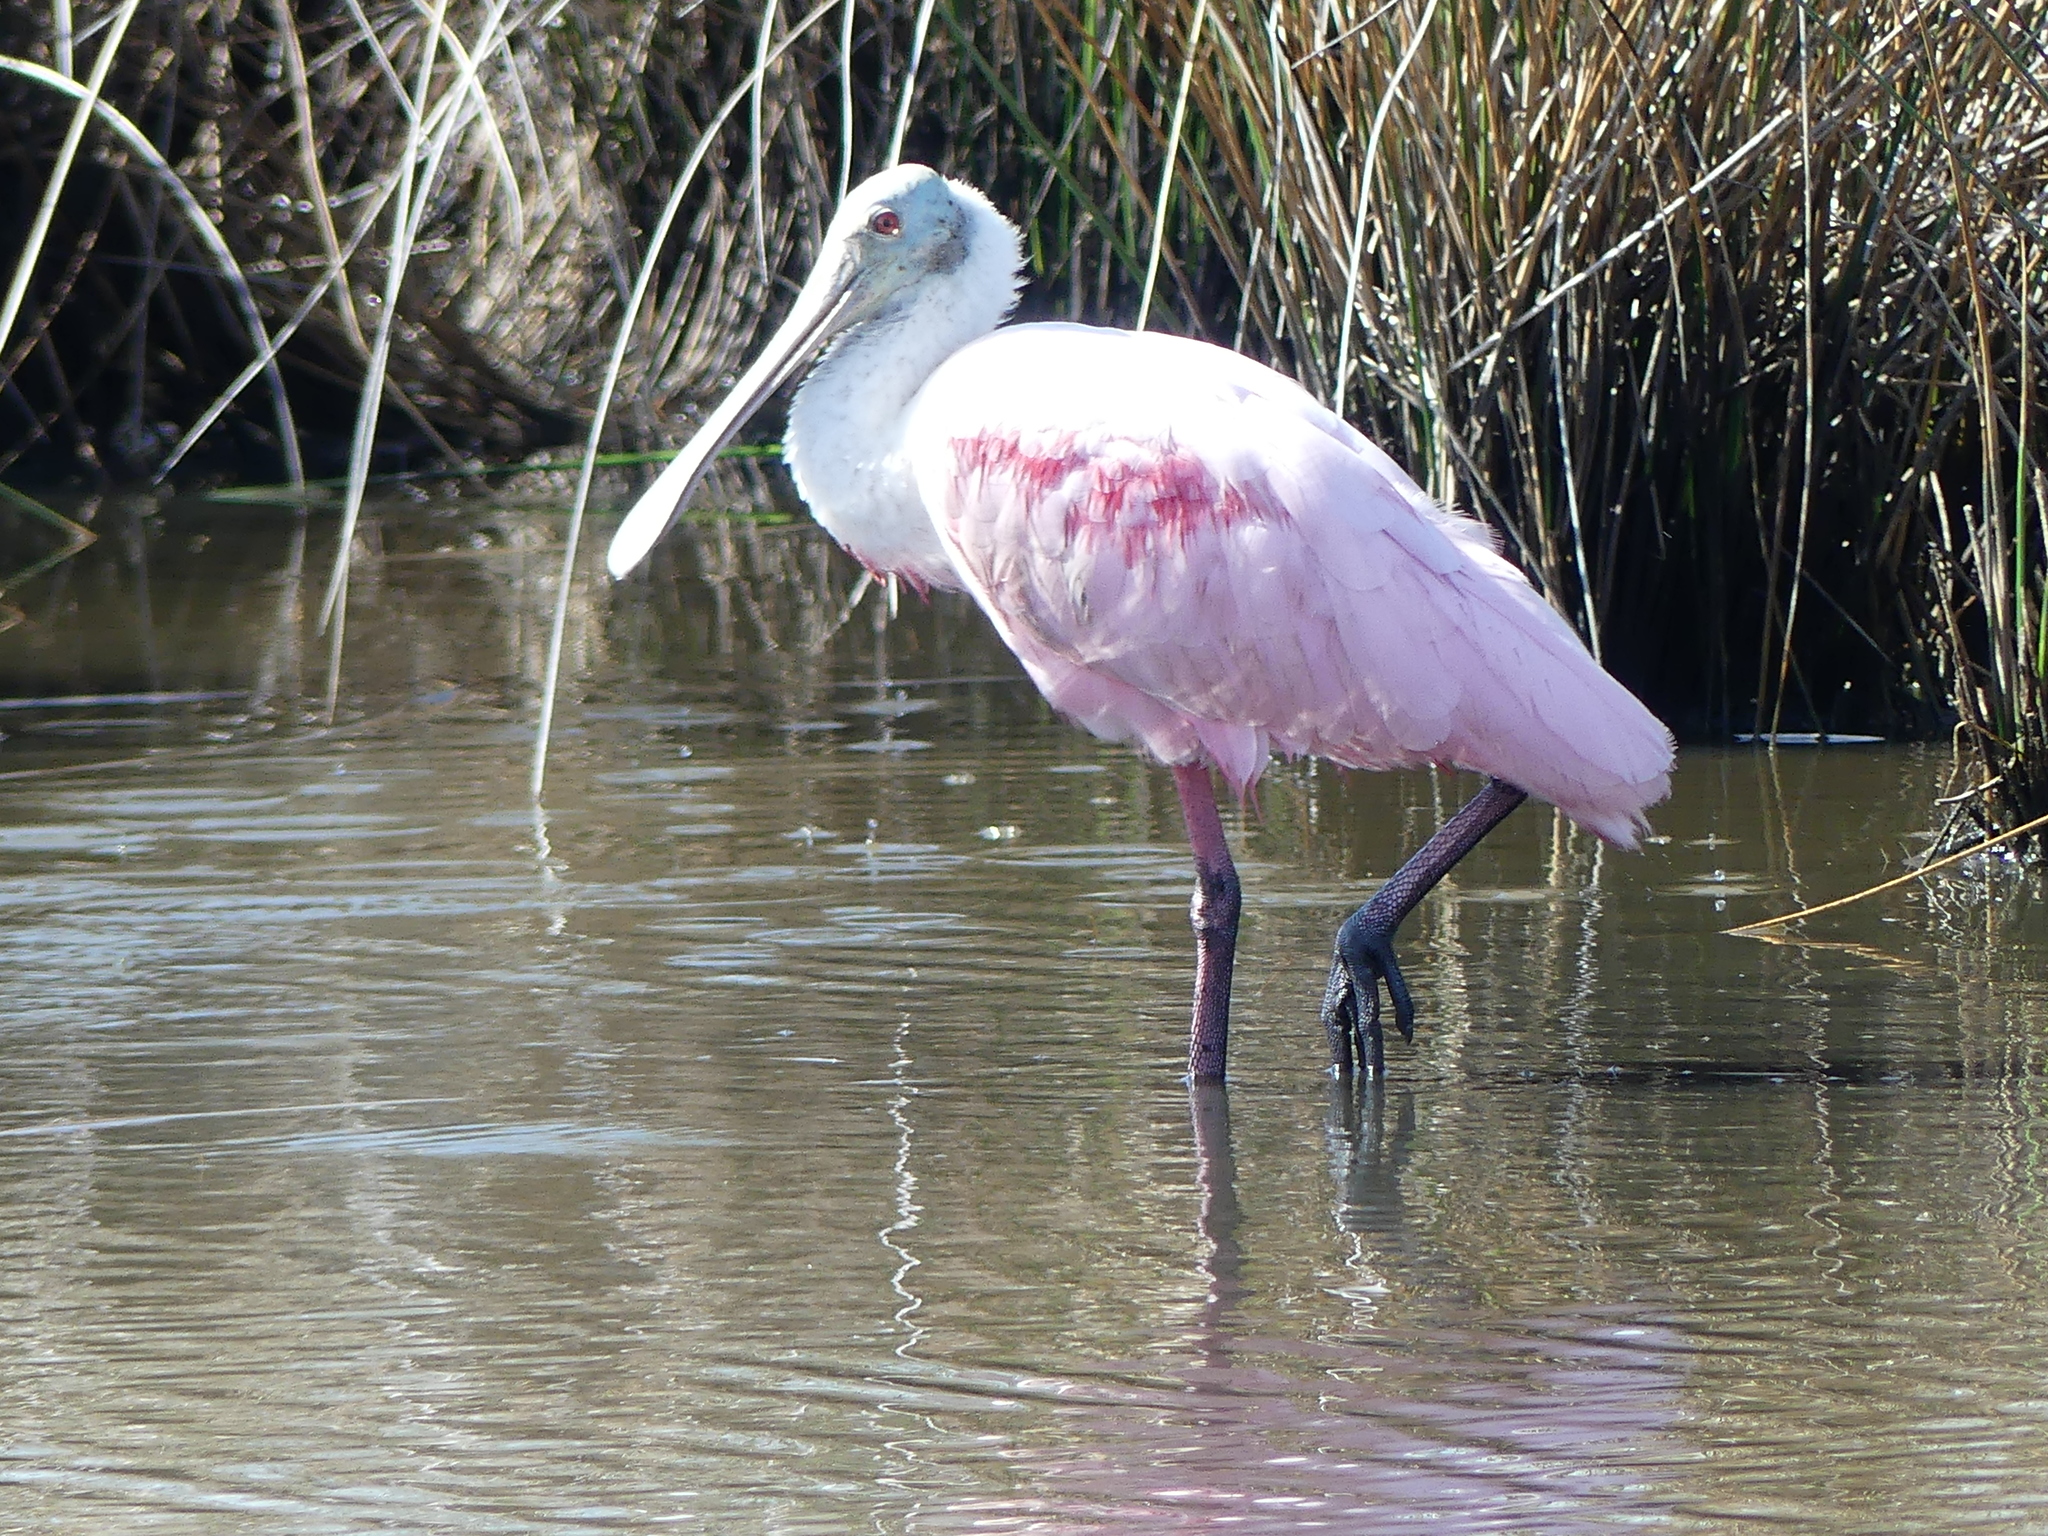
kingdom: Animalia
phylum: Chordata
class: Aves
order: Pelecaniformes
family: Threskiornithidae
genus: Platalea
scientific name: Platalea ajaja
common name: Roseate spoonbill
